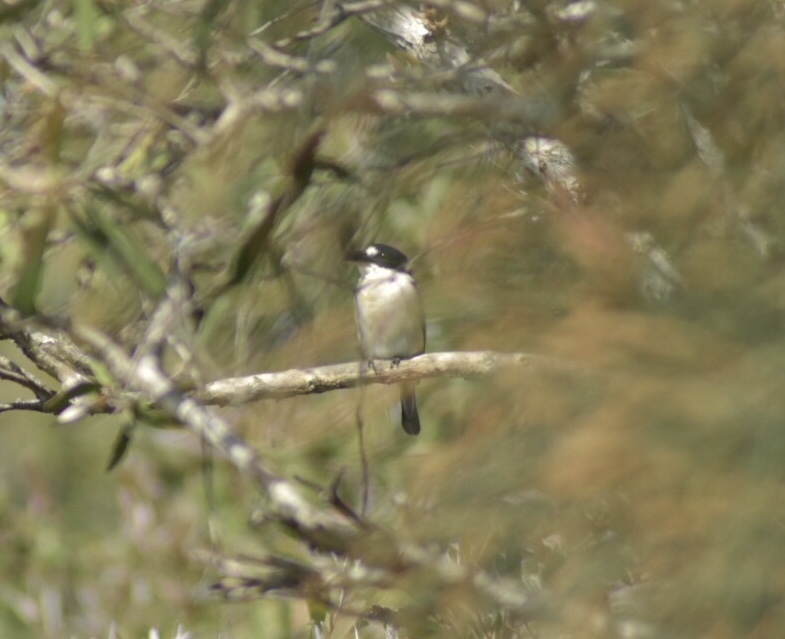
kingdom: Animalia
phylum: Chordata
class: Aves
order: Coraciiformes
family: Alcedinidae
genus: Todiramphus
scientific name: Todiramphus macleayii
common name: Forest kingfisher
